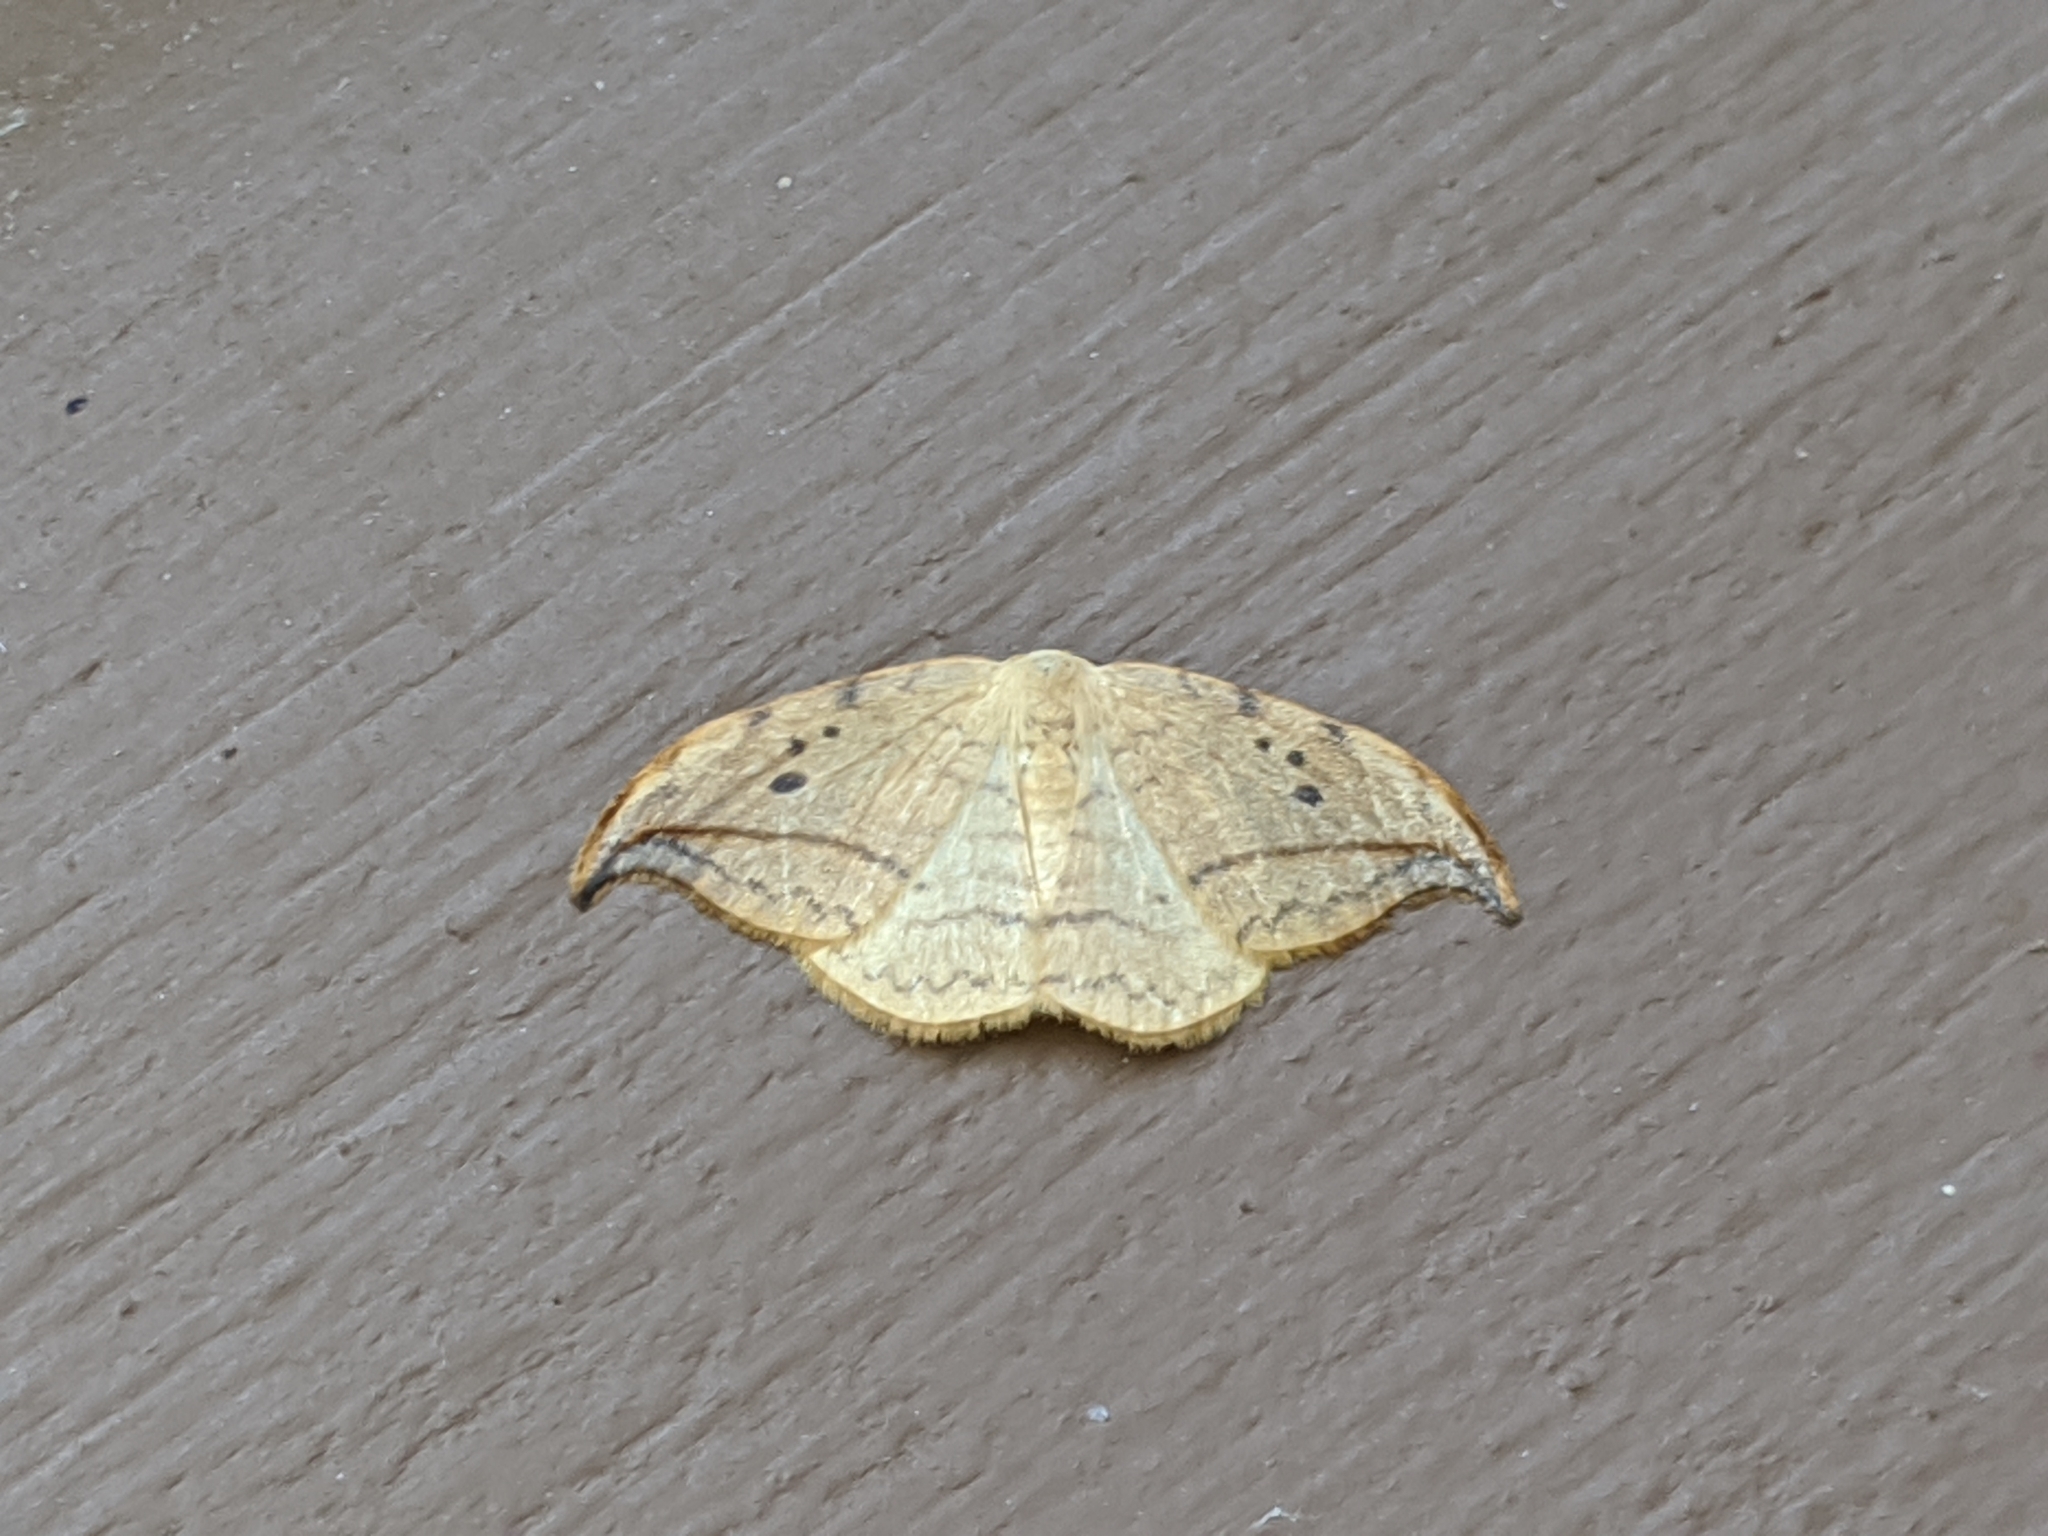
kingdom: Animalia
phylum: Arthropoda
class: Insecta
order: Lepidoptera
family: Drepanidae
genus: Drepana
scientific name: Drepana arcuata
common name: Arched hooktip moth
